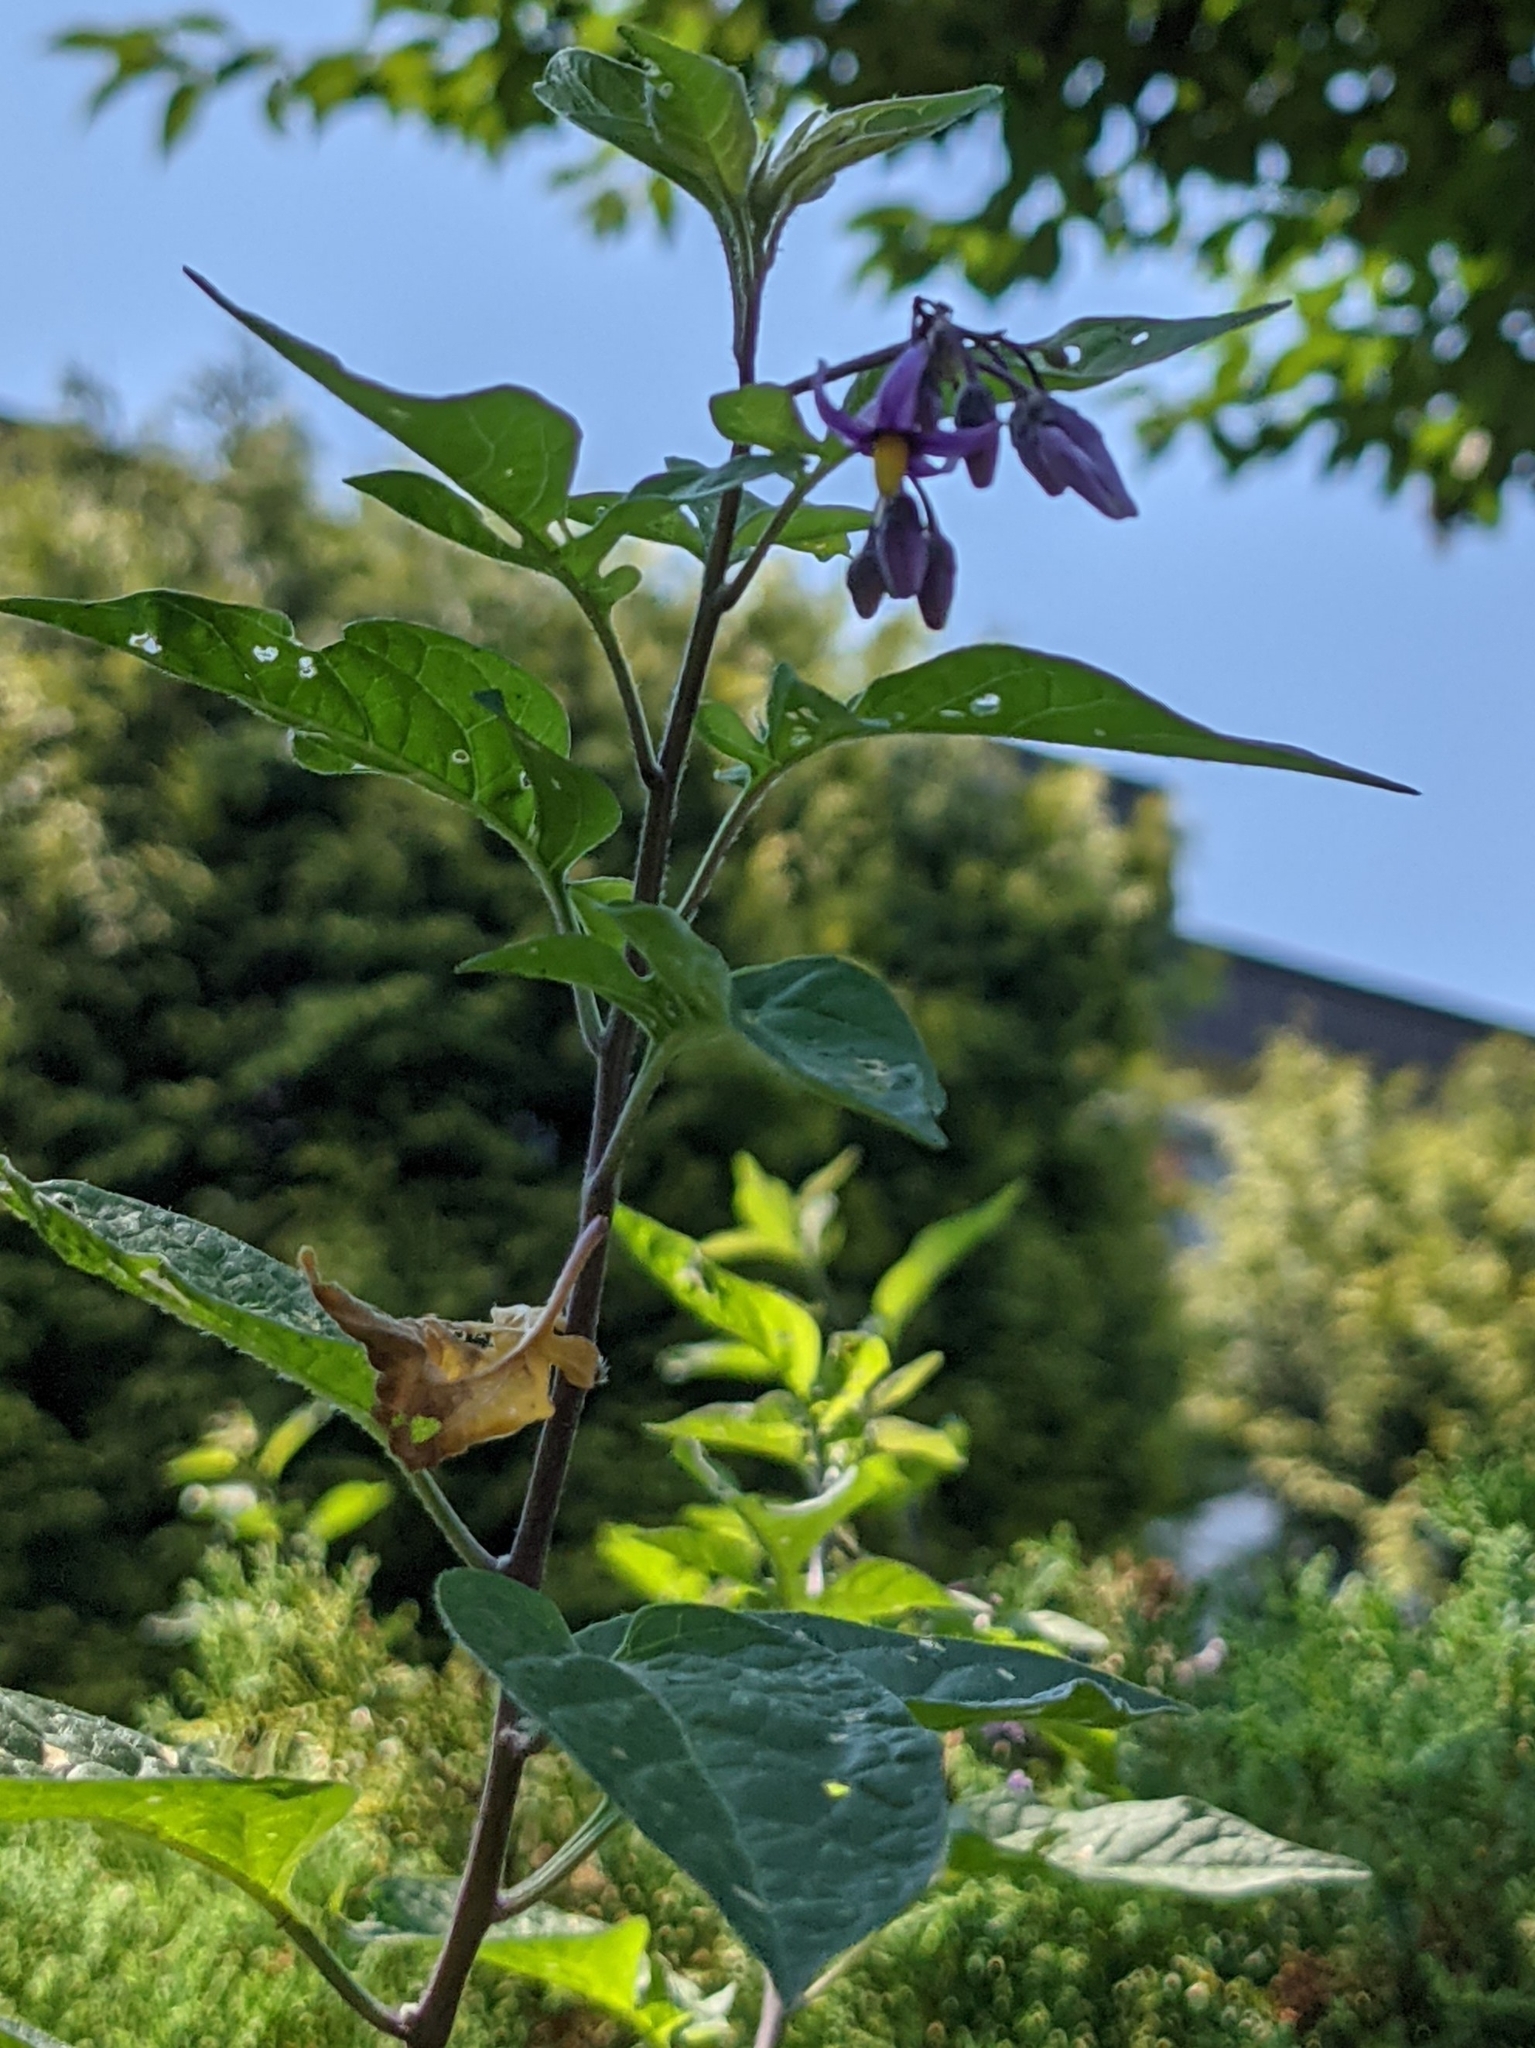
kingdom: Plantae
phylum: Tracheophyta
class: Magnoliopsida
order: Solanales
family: Solanaceae
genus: Solanum
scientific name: Solanum dulcamara
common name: Climbing nightshade
